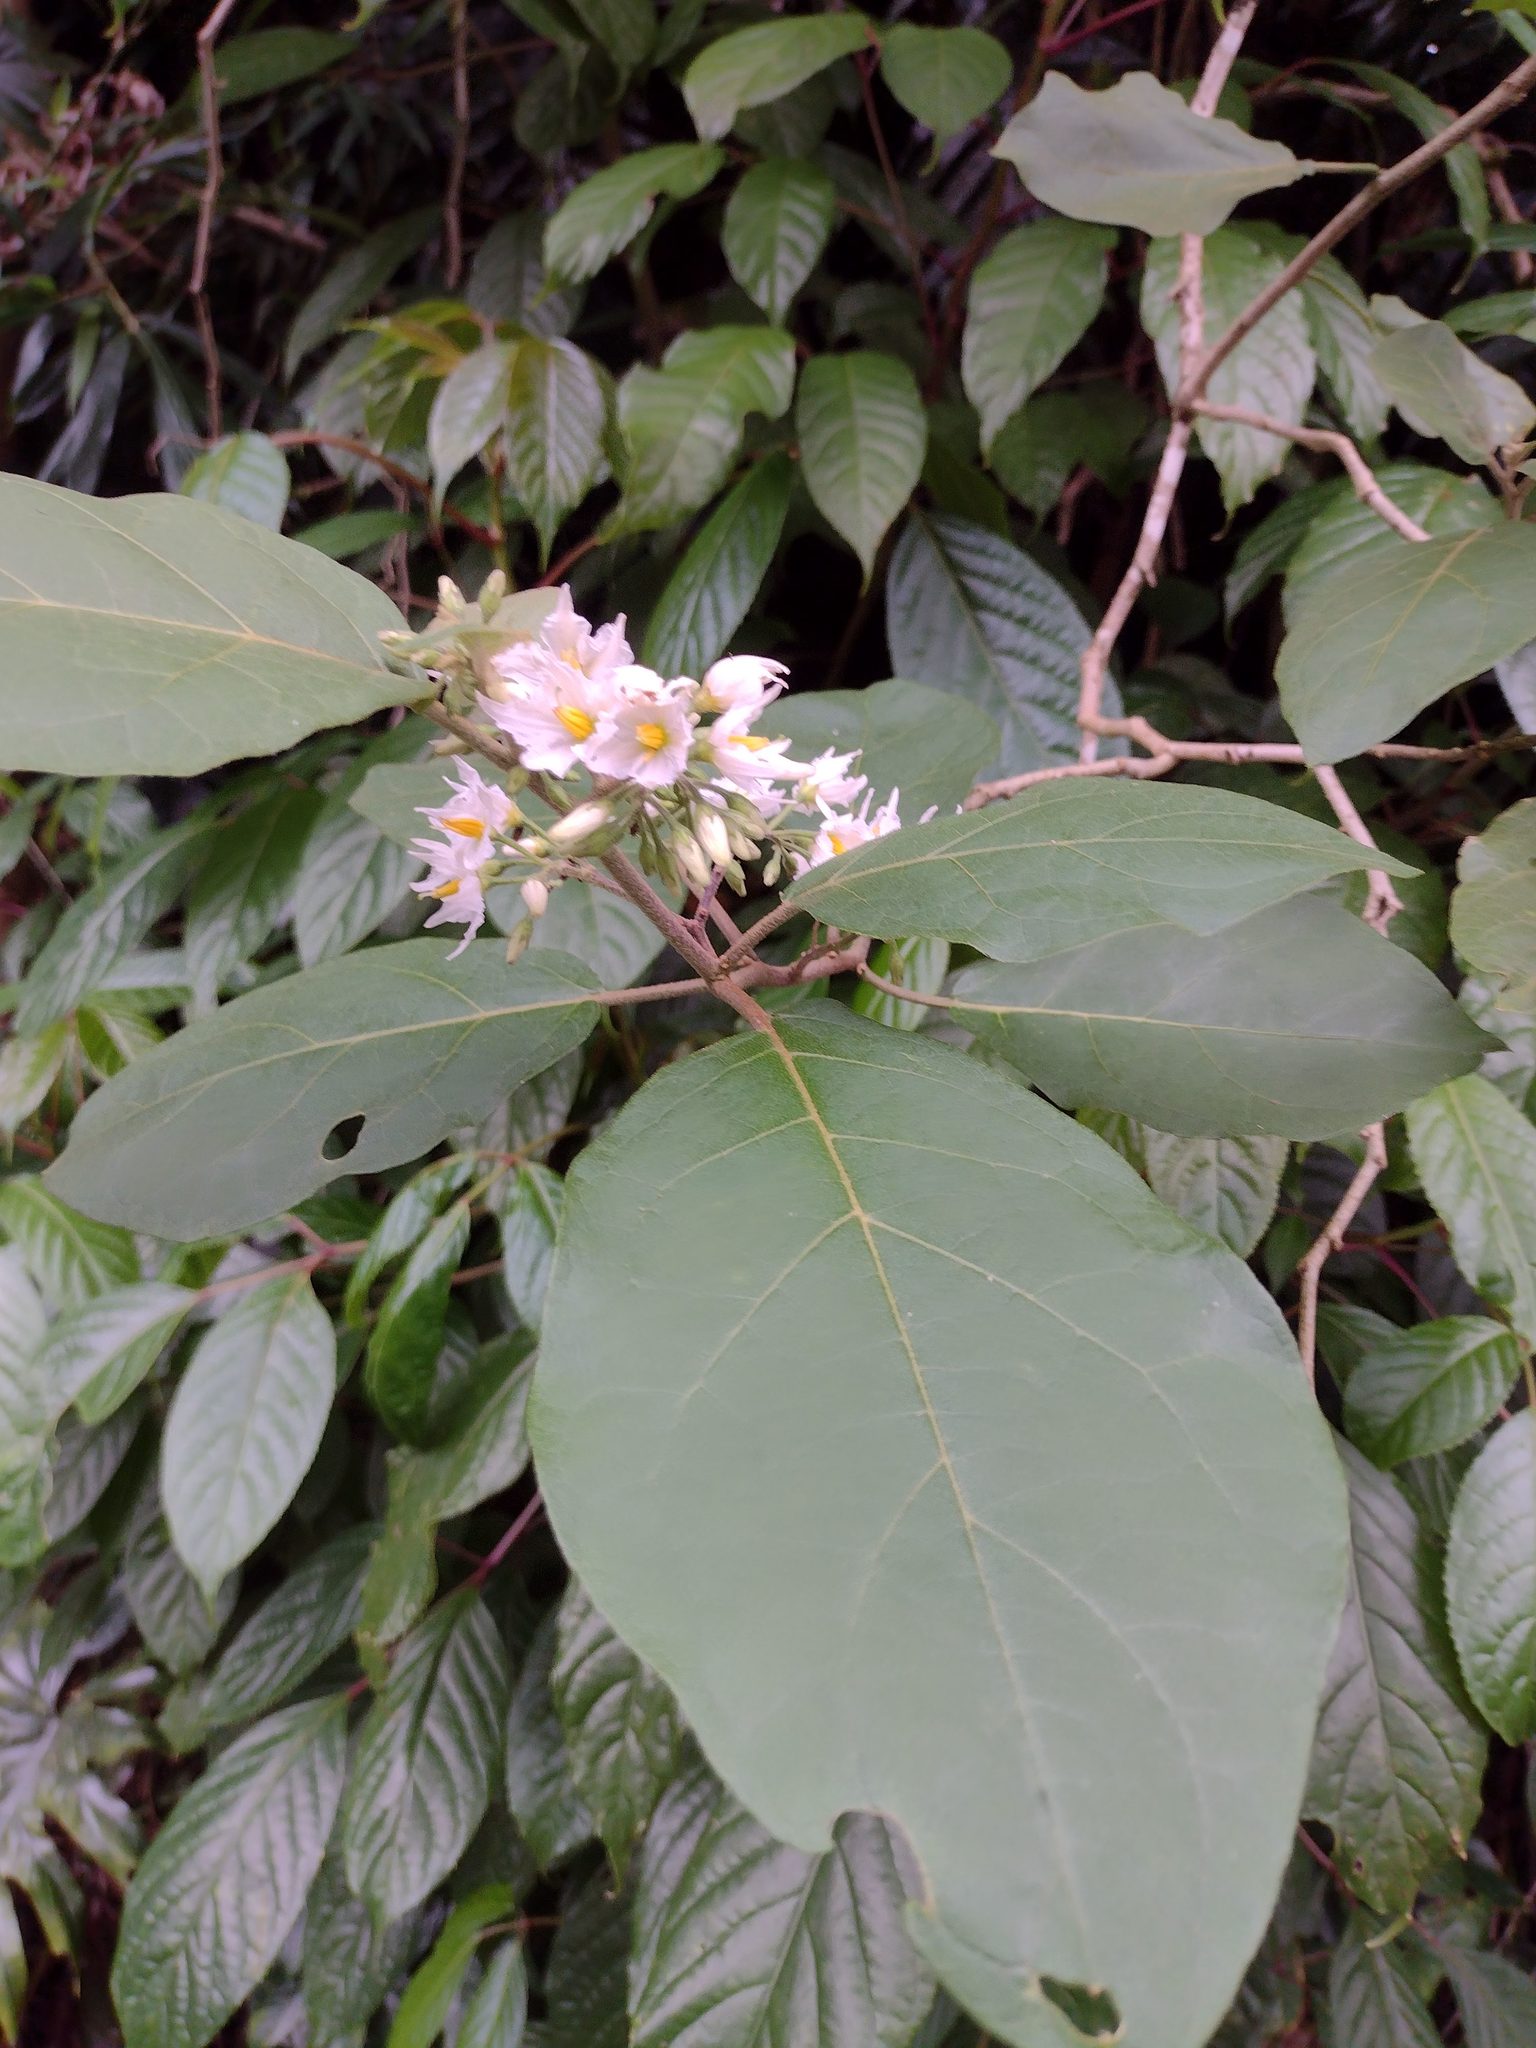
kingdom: Plantae
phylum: Tracheophyta
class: Magnoliopsida
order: Solanales
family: Solanaceae
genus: Solanum
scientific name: Solanum torvum
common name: Turkey berry
